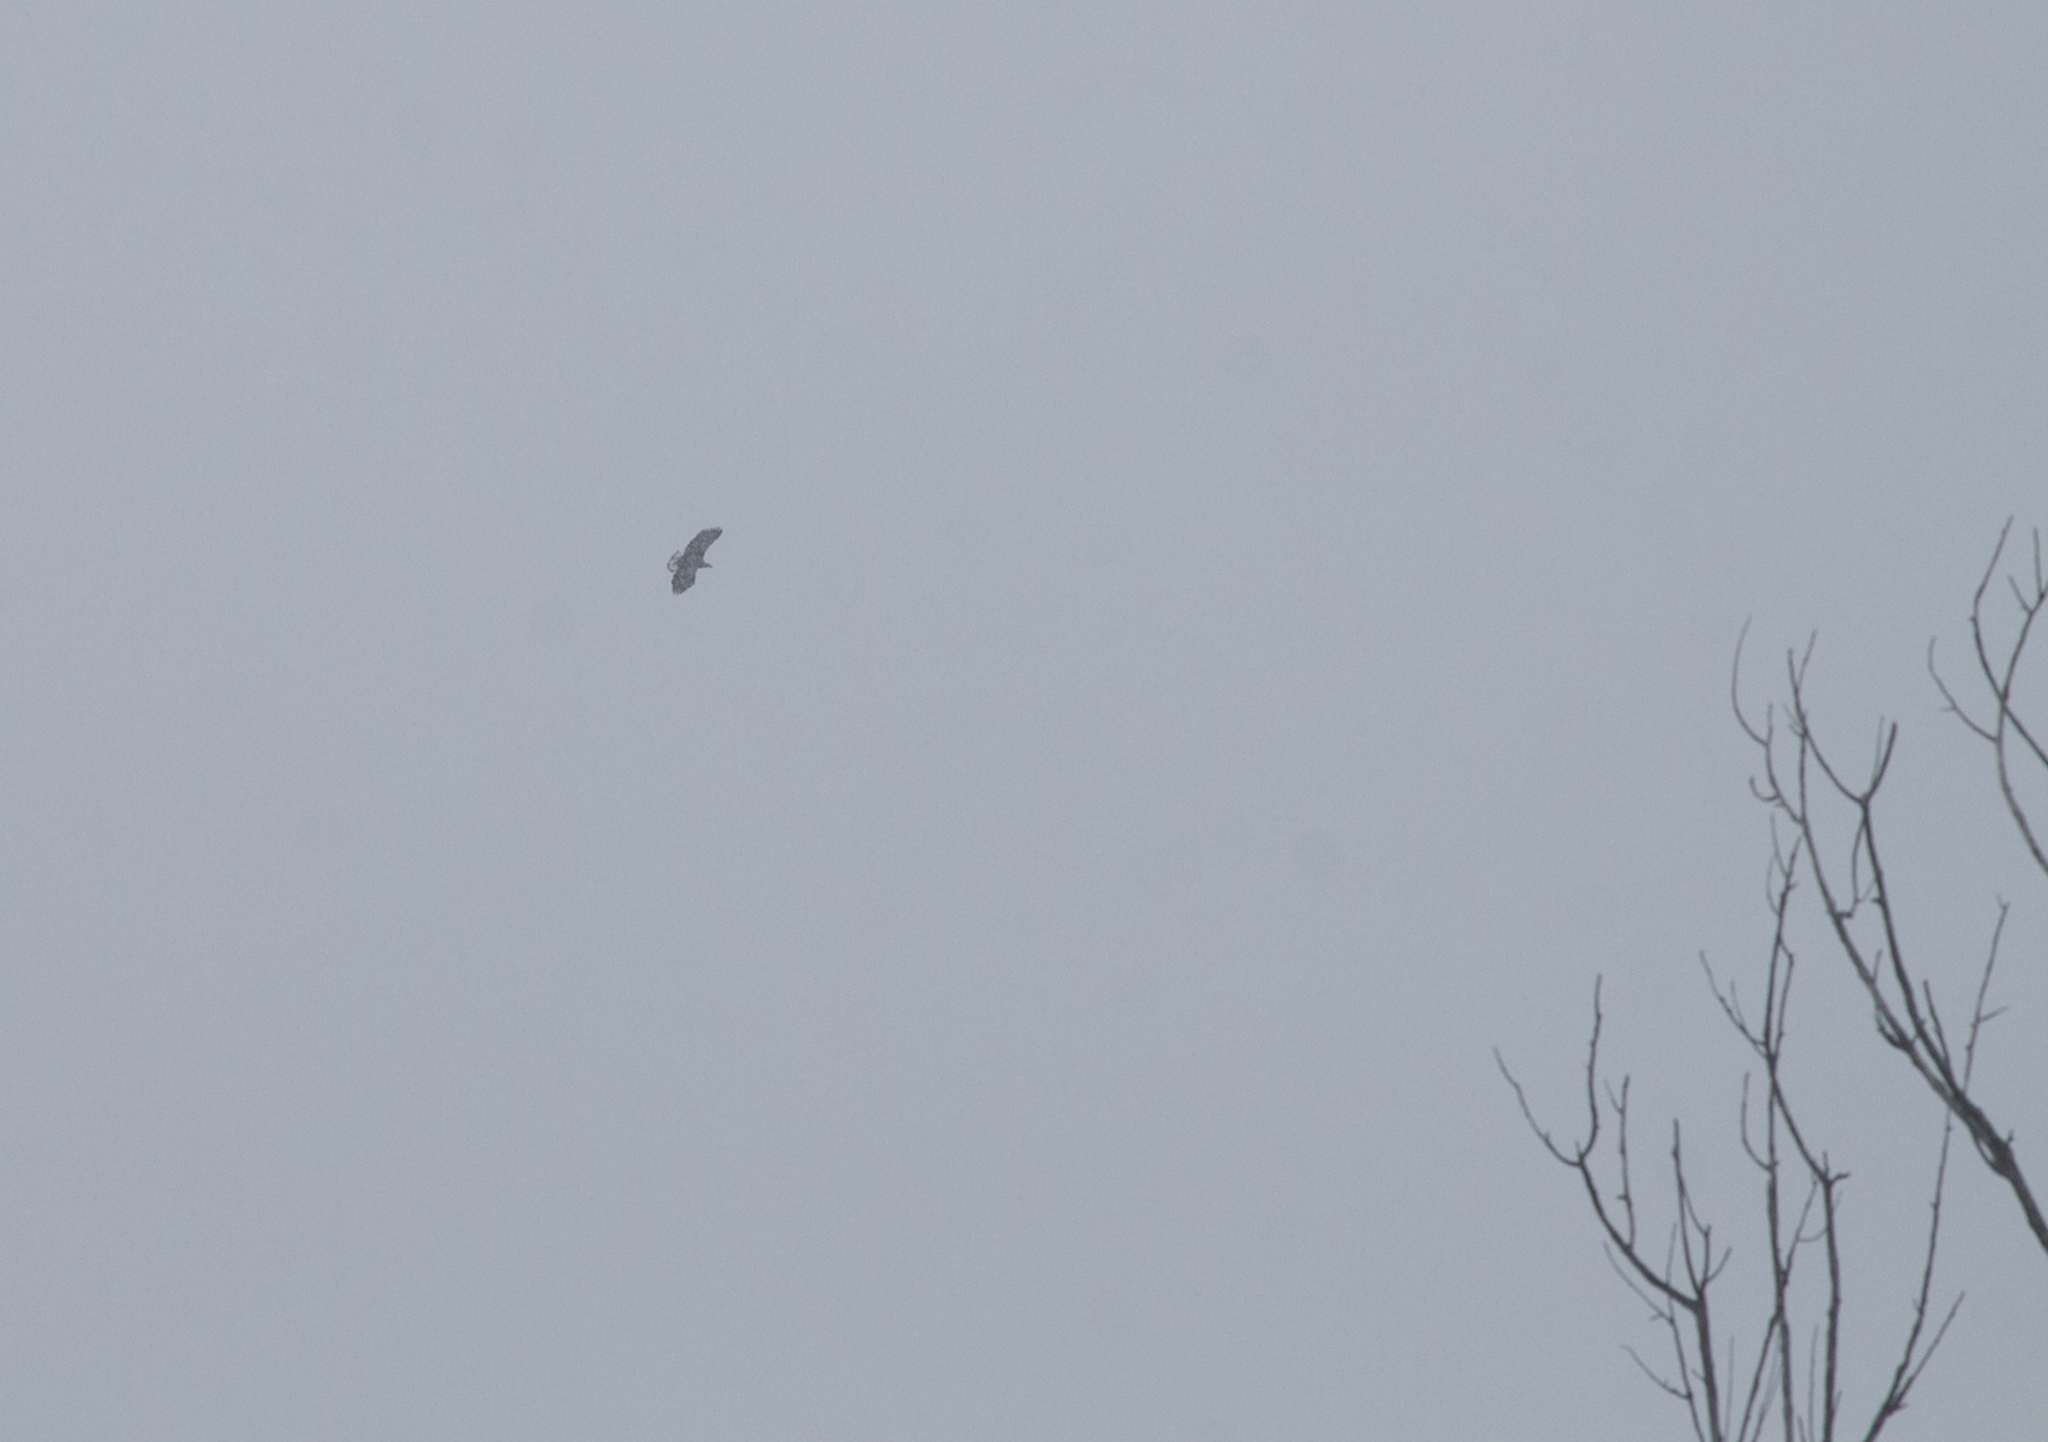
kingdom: Animalia
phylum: Chordata
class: Aves
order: Accipitriformes
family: Accipitridae
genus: Haliaeetus
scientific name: Haliaeetus albicilla
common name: White-tailed eagle
